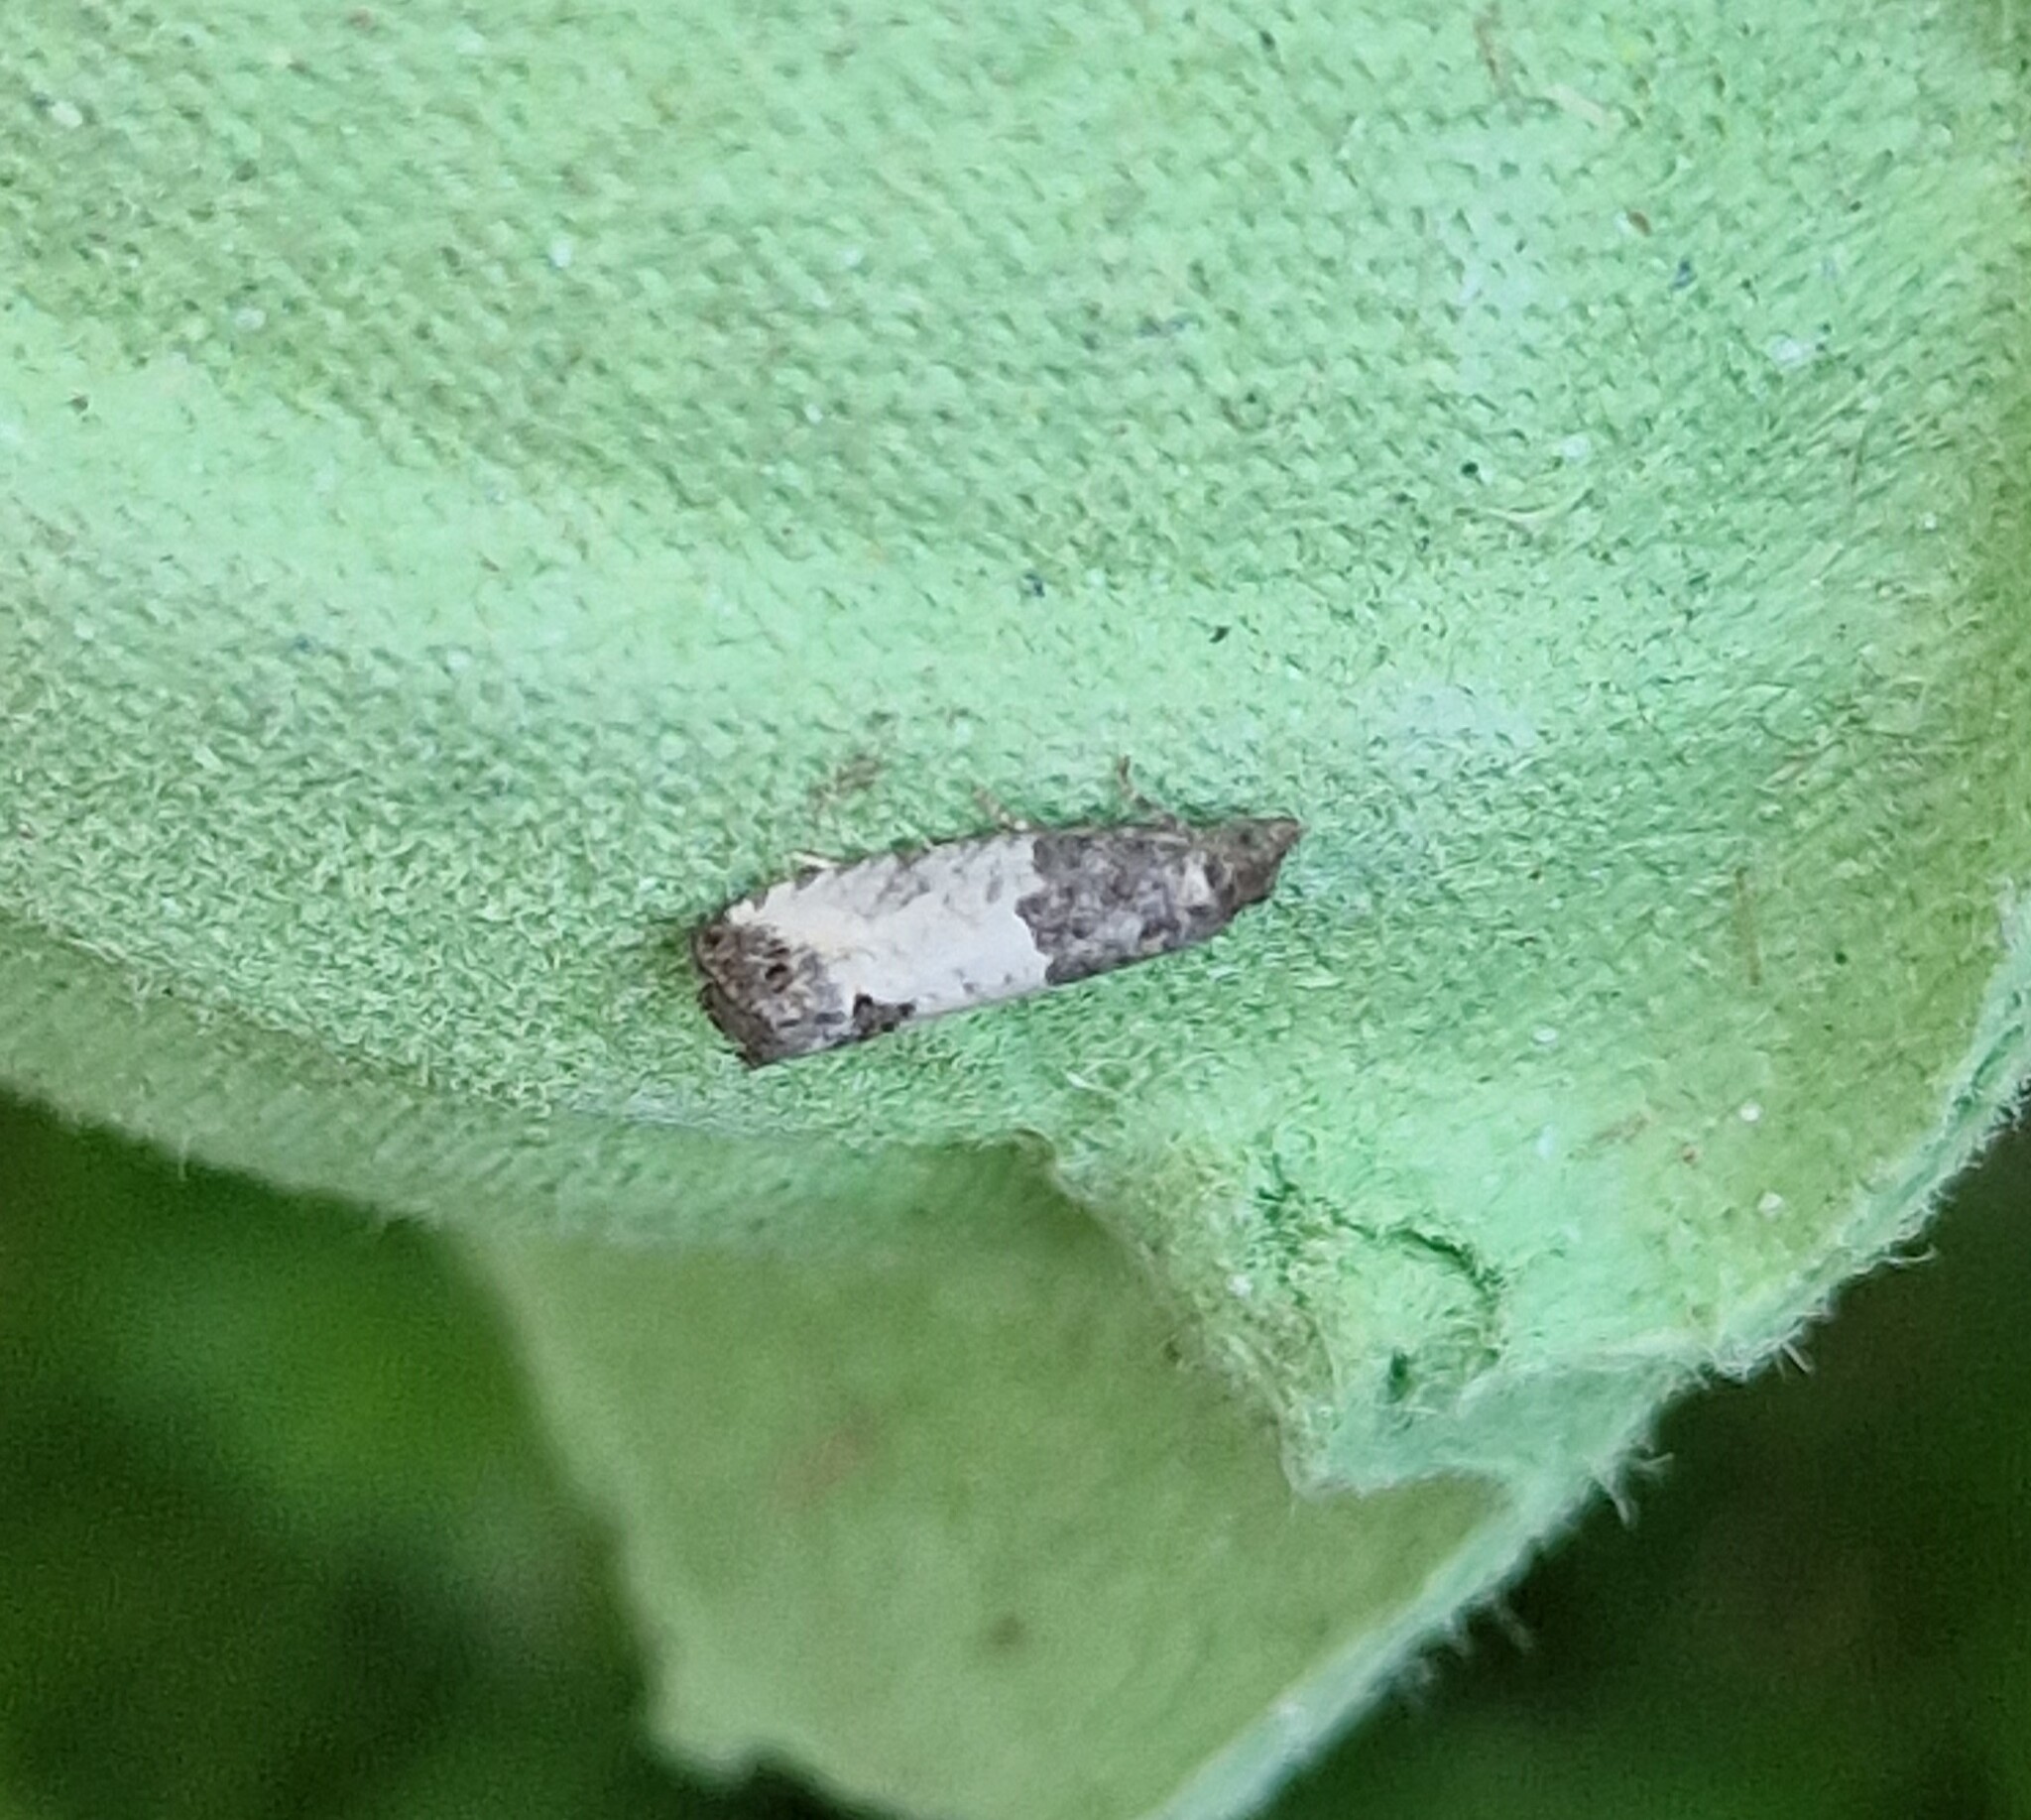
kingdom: Animalia
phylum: Arthropoda
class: Insecta
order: Lepidoptera
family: Tortricidae
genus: Spilonota
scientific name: Spilonota ocellana
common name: Bud moth
